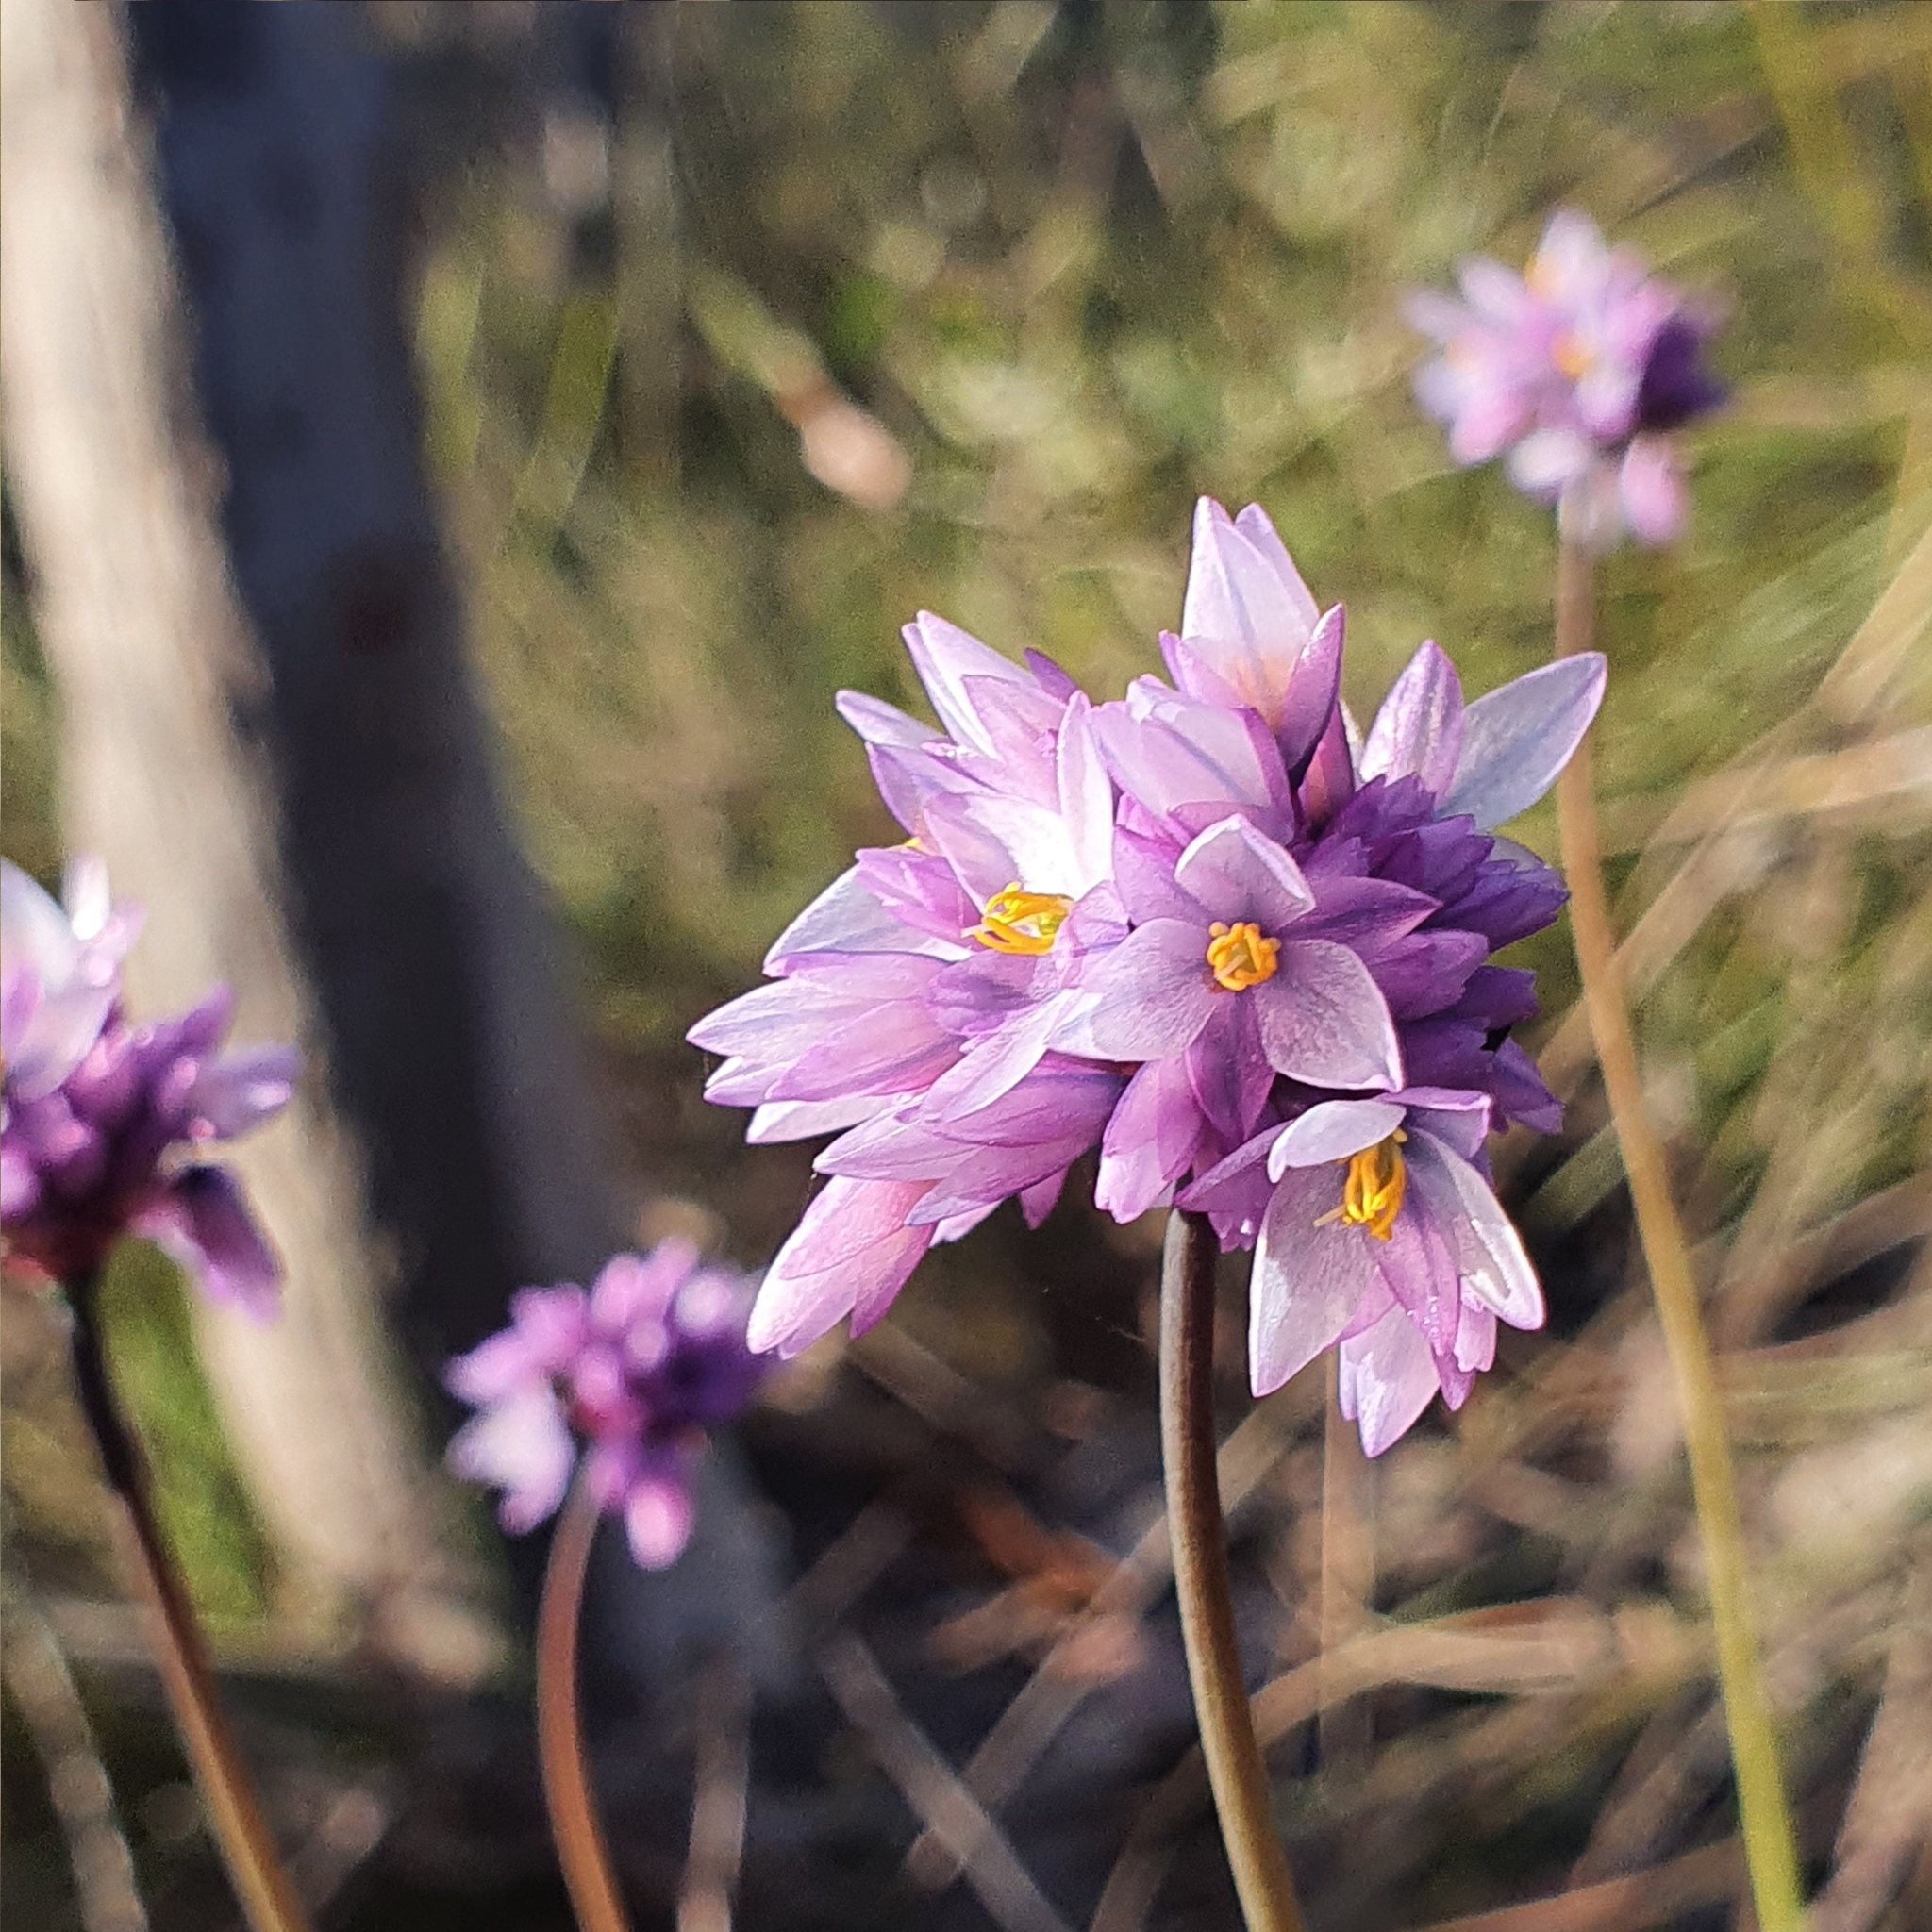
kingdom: Plantae
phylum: Tracheophyta
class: Liliopsida
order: Asparagales
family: Asparagaceae
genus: Sowerbaea
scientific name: Sowerbaea juncea
